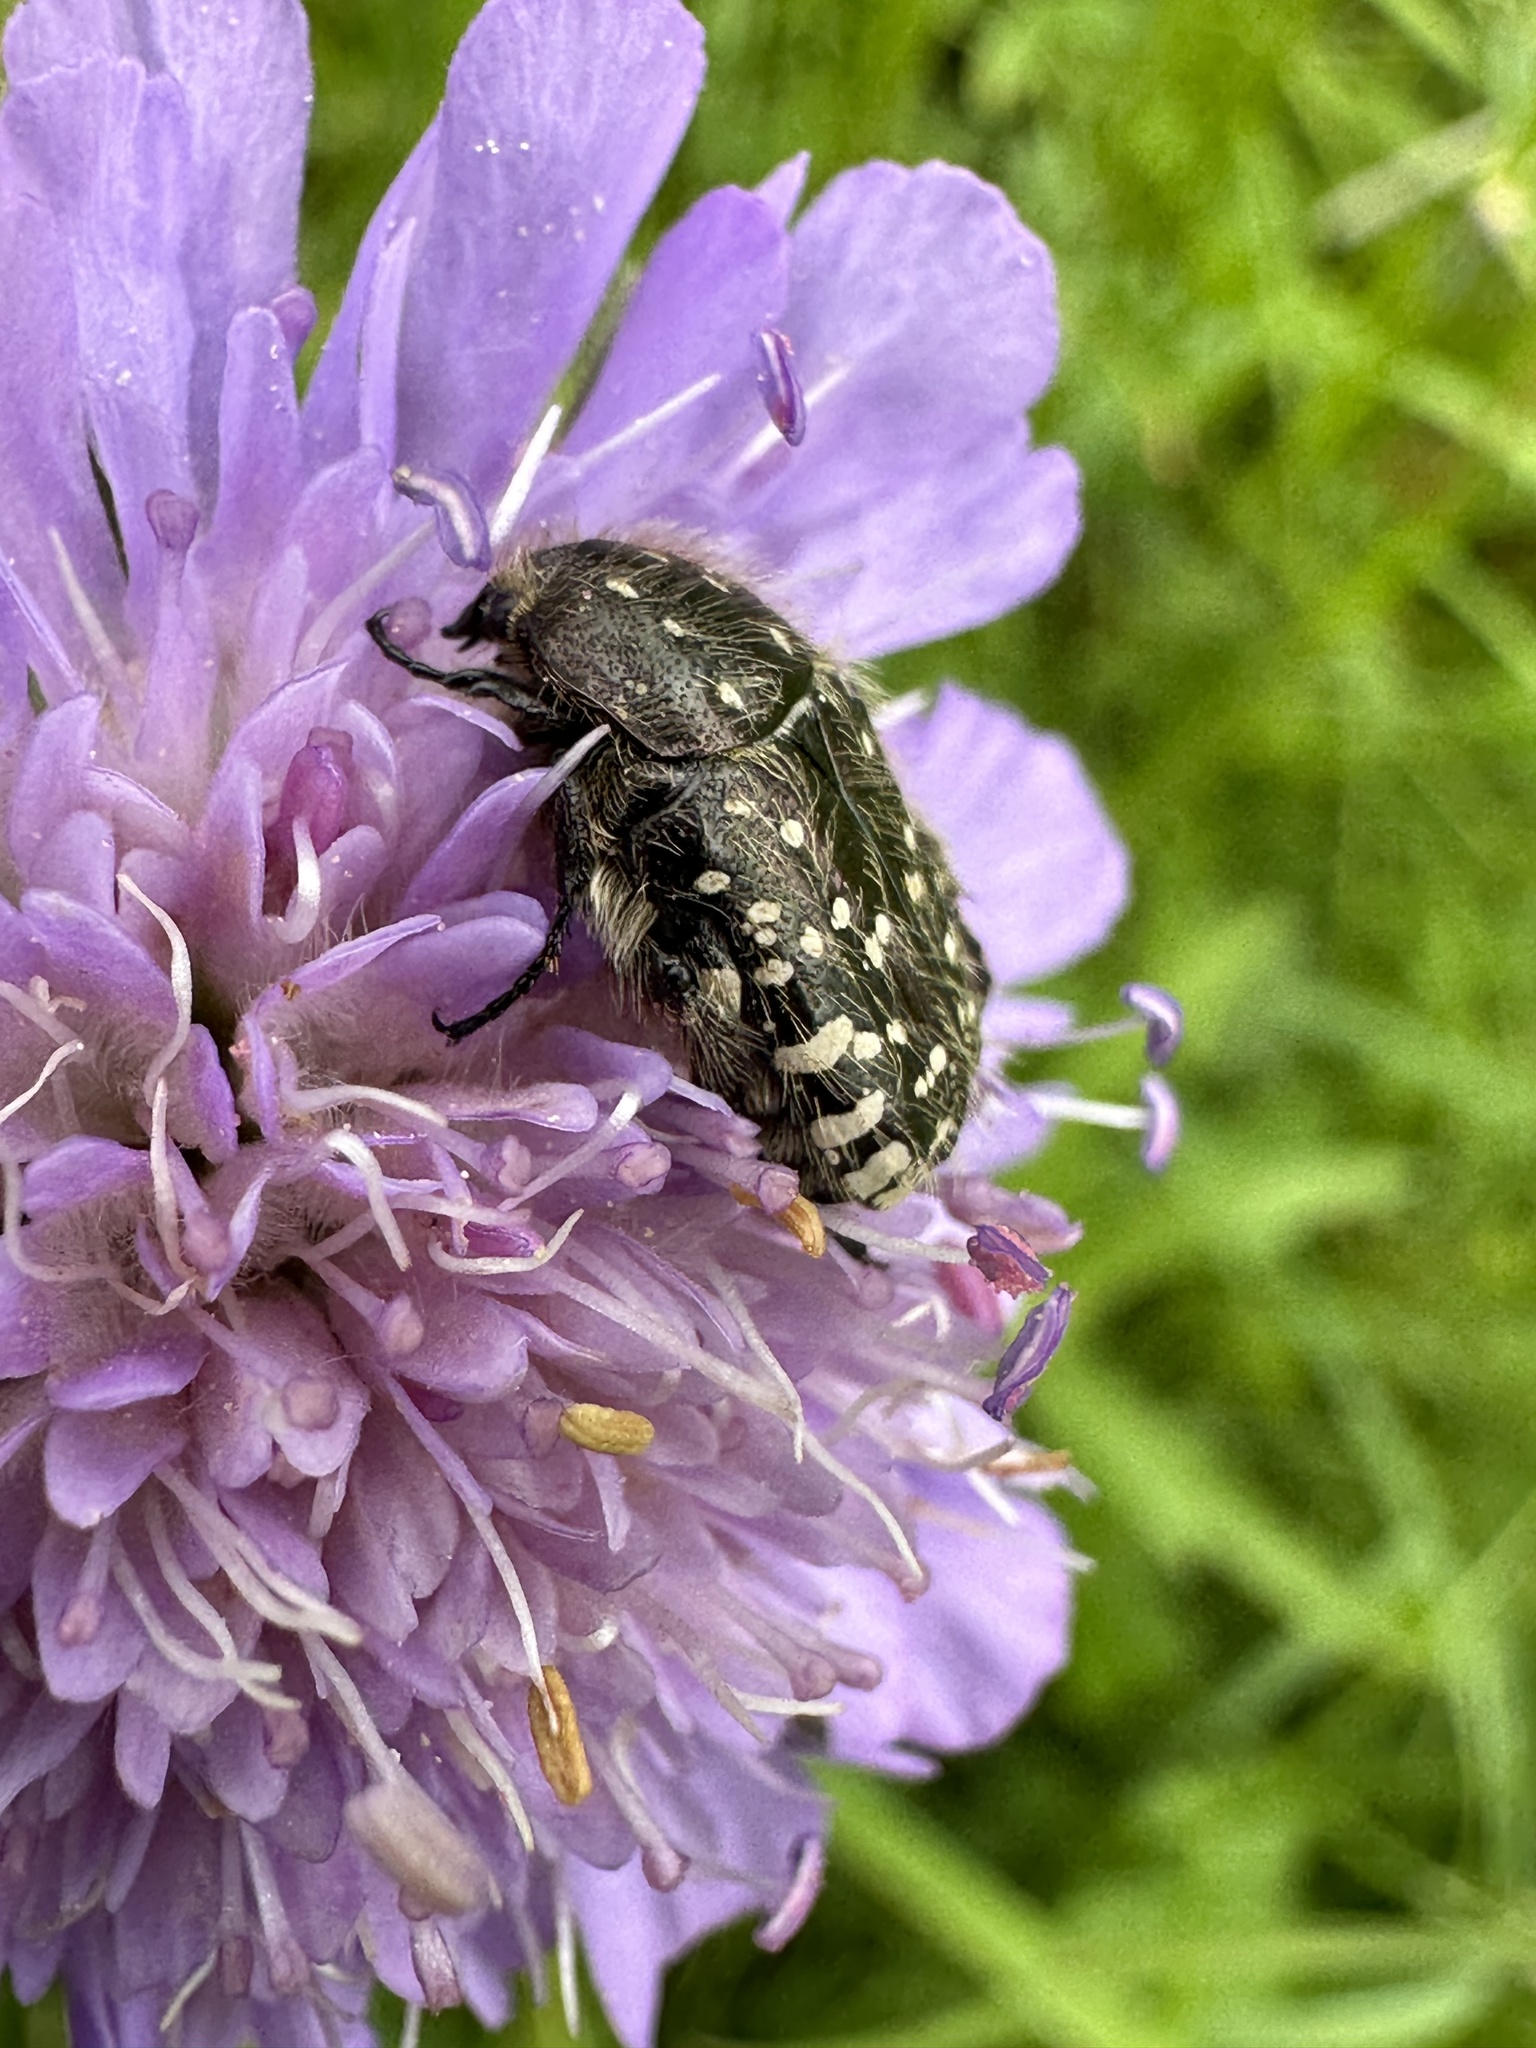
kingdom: Animalia
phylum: Arthropoda
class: Insecta
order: Coleoptera
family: Scarabaeidae
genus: Oxythyrea
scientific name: Oxythyrea funesta
